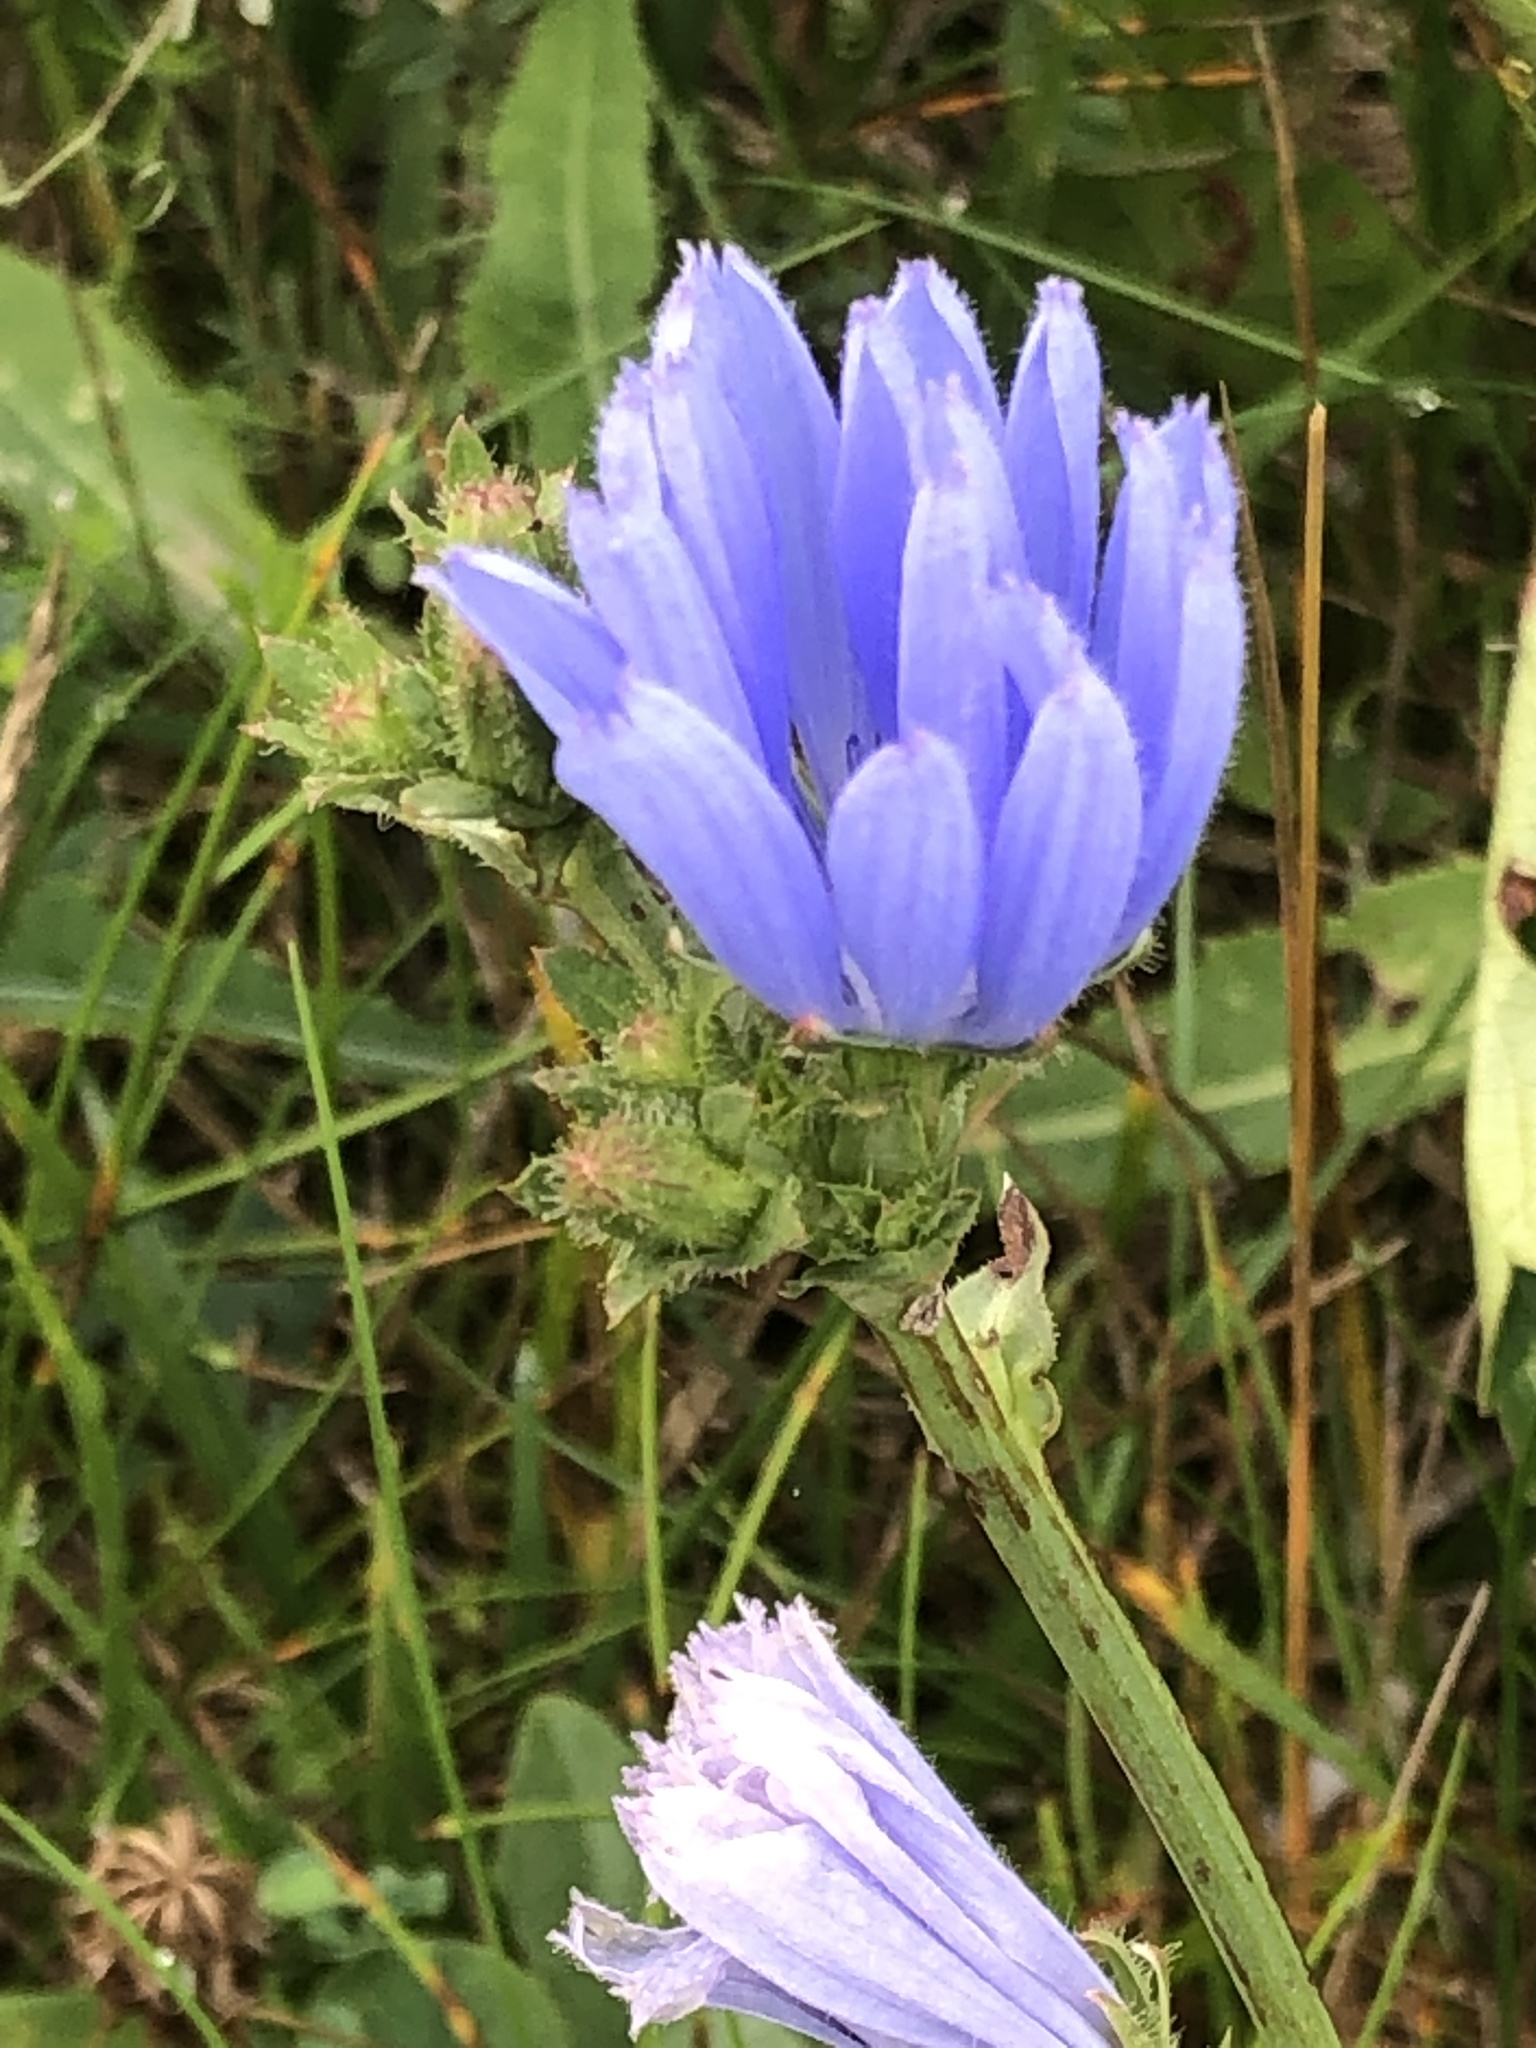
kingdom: Plantae
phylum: Tracheophyta
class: Magnoliopsida
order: Asterales
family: Asteraceae
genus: Cichorium
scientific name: Cichorium intybus
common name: Chicory
